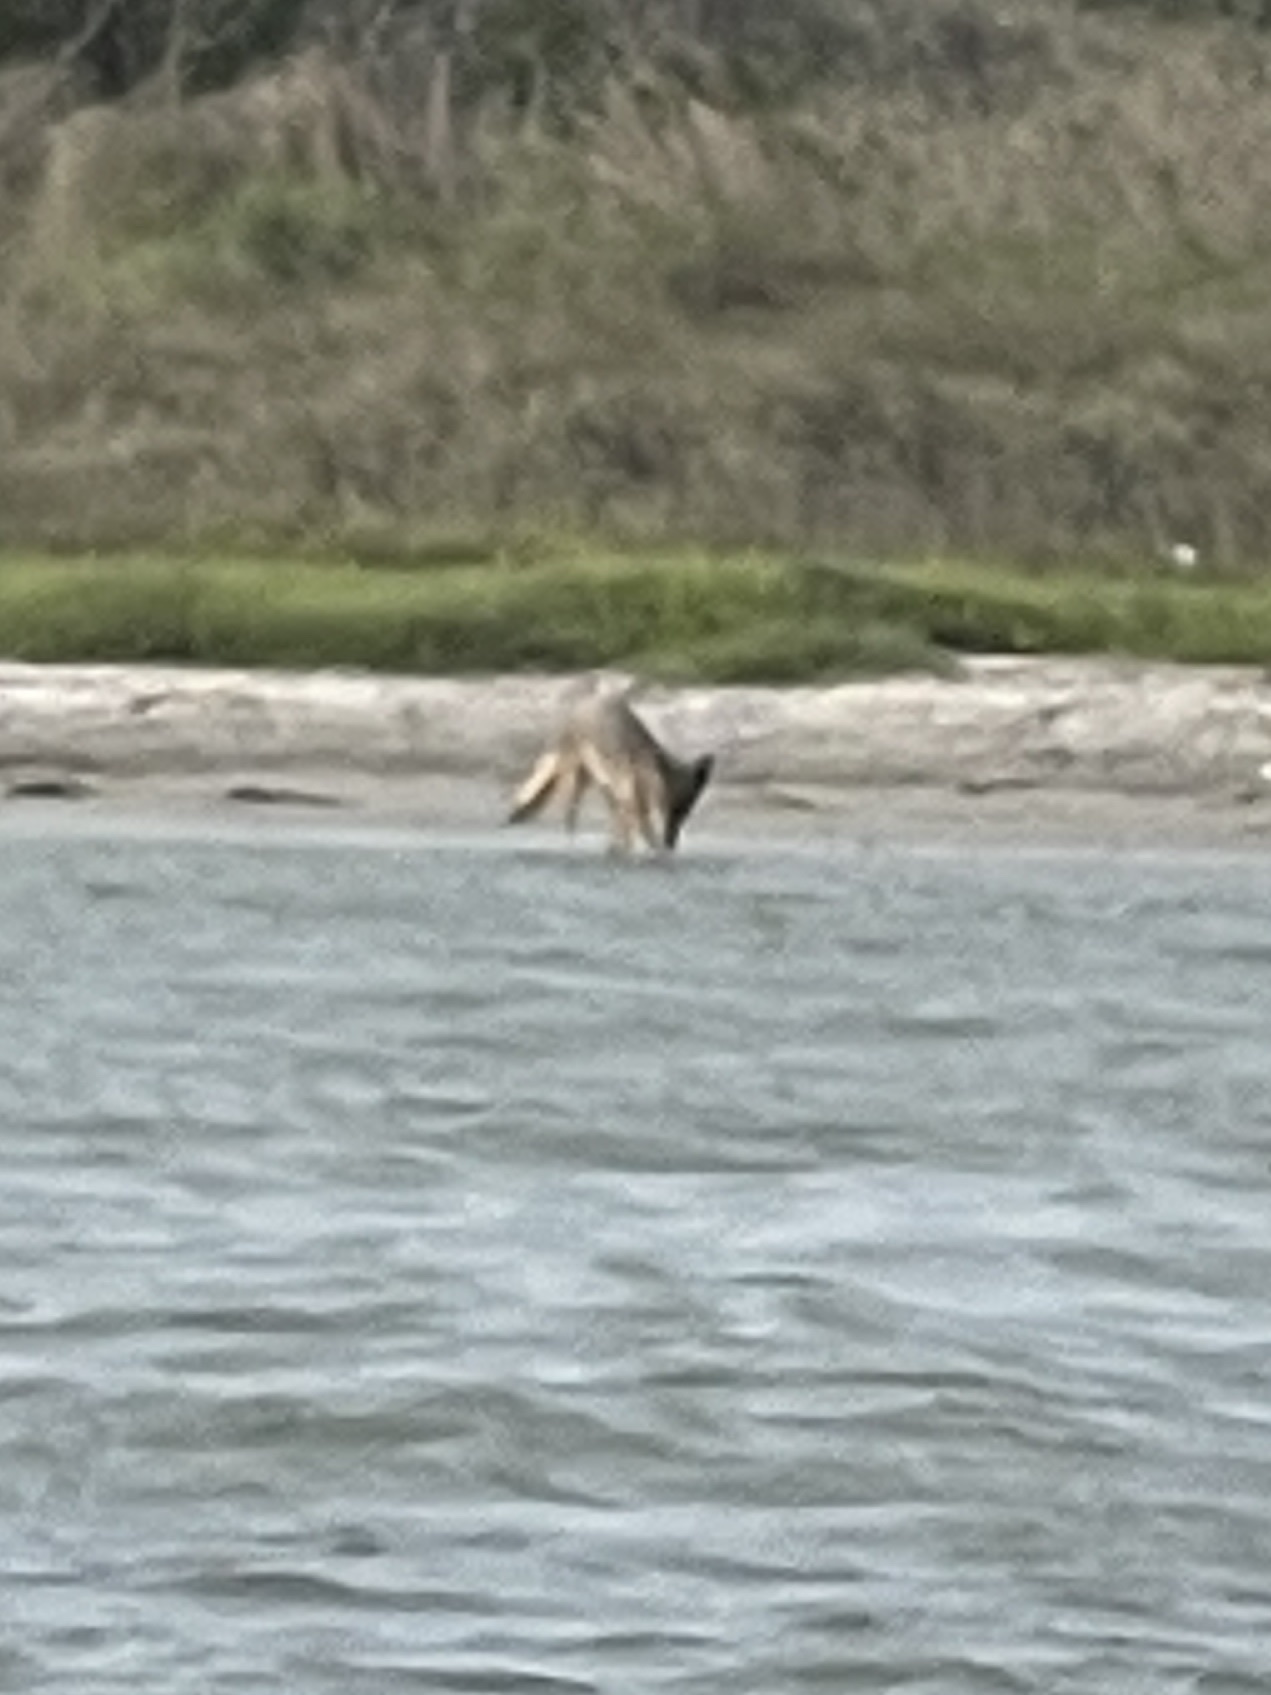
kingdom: Animalia
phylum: Chordata
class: Mammalia
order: Carnivora
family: Canidae
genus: Canis
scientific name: Canis latrans
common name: Coyote
